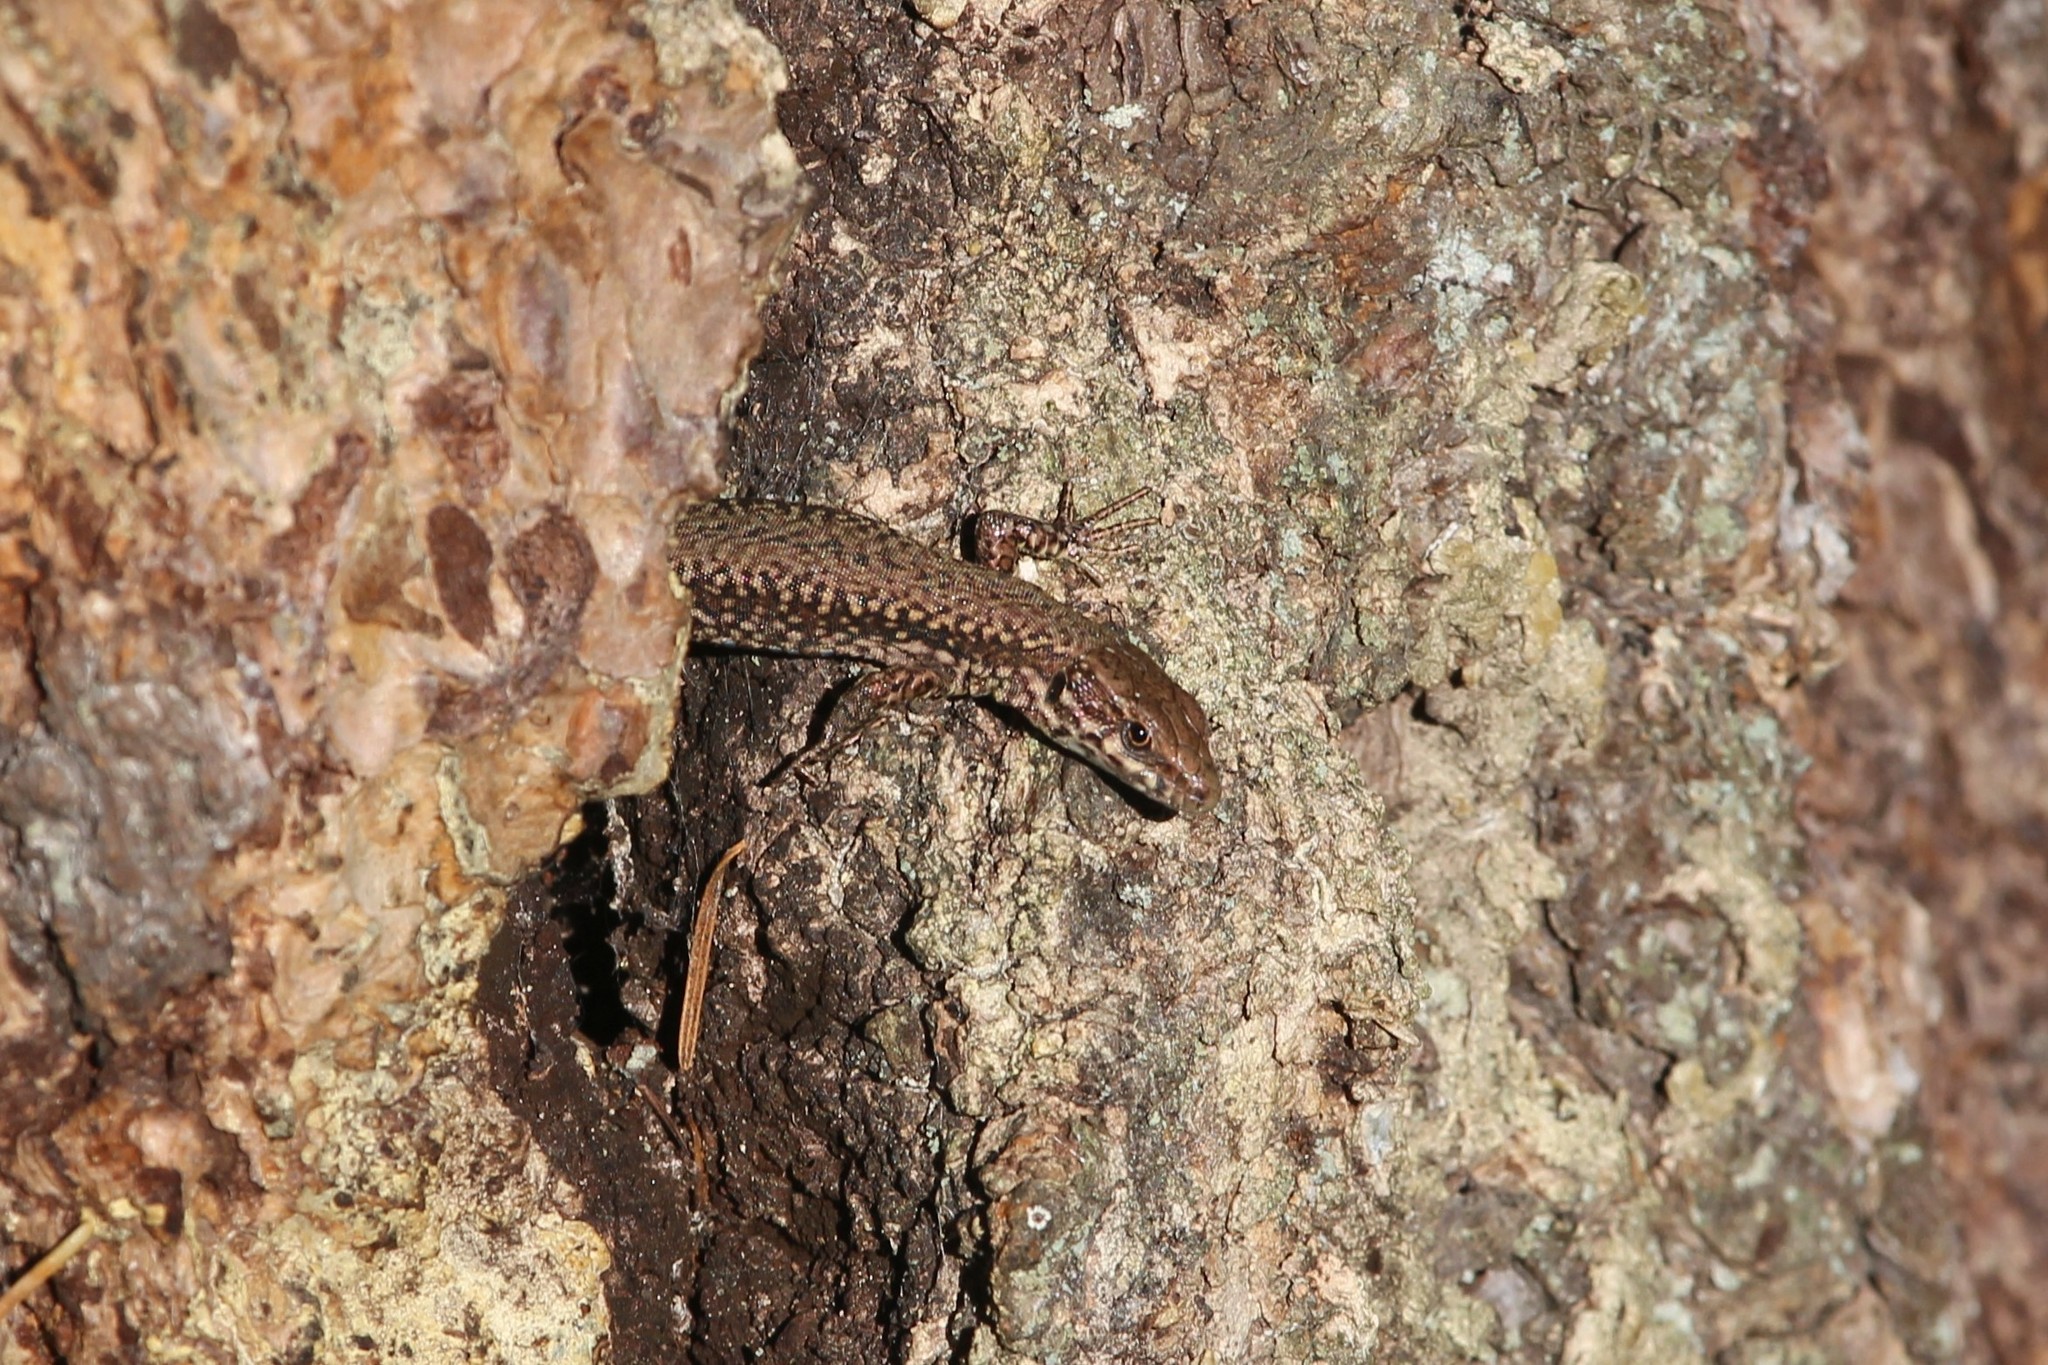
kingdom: Animalia
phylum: Chordata
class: Squamata
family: Lacertidae
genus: Podarcis
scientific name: Podarcis muralis
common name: Common wall lizard
